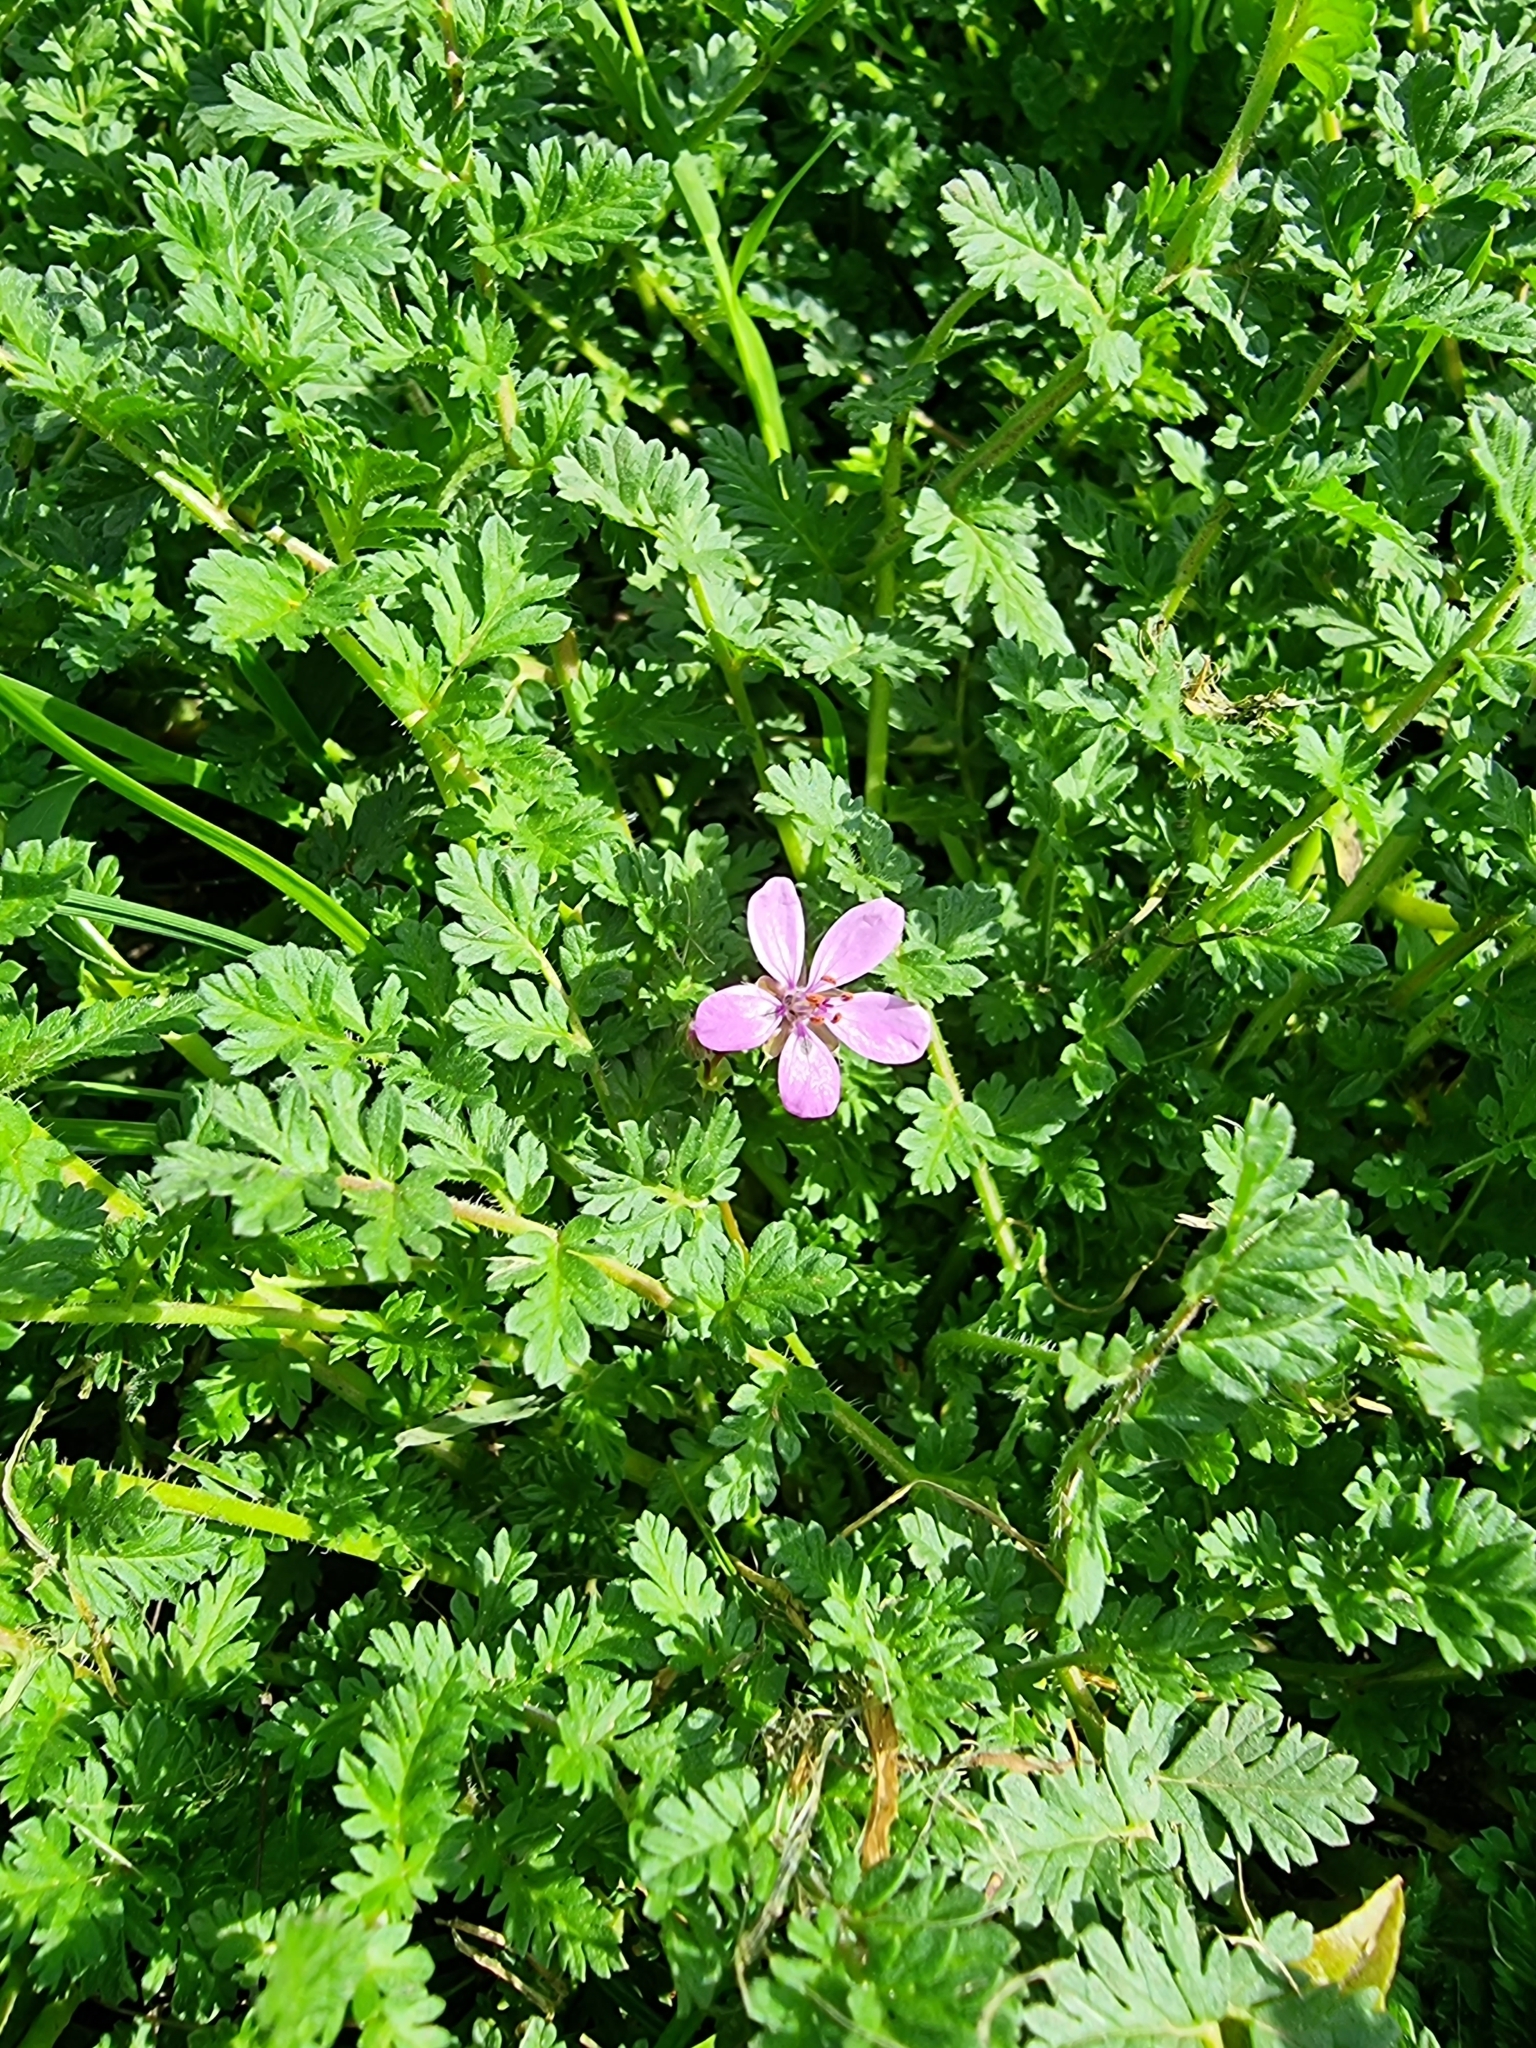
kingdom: Plantae
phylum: Tracheophyta
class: Magnoliopsida
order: Geraniales
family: Geraniaceae
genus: Erodium
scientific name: Erodium cicutarium
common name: Common stork's-bill
